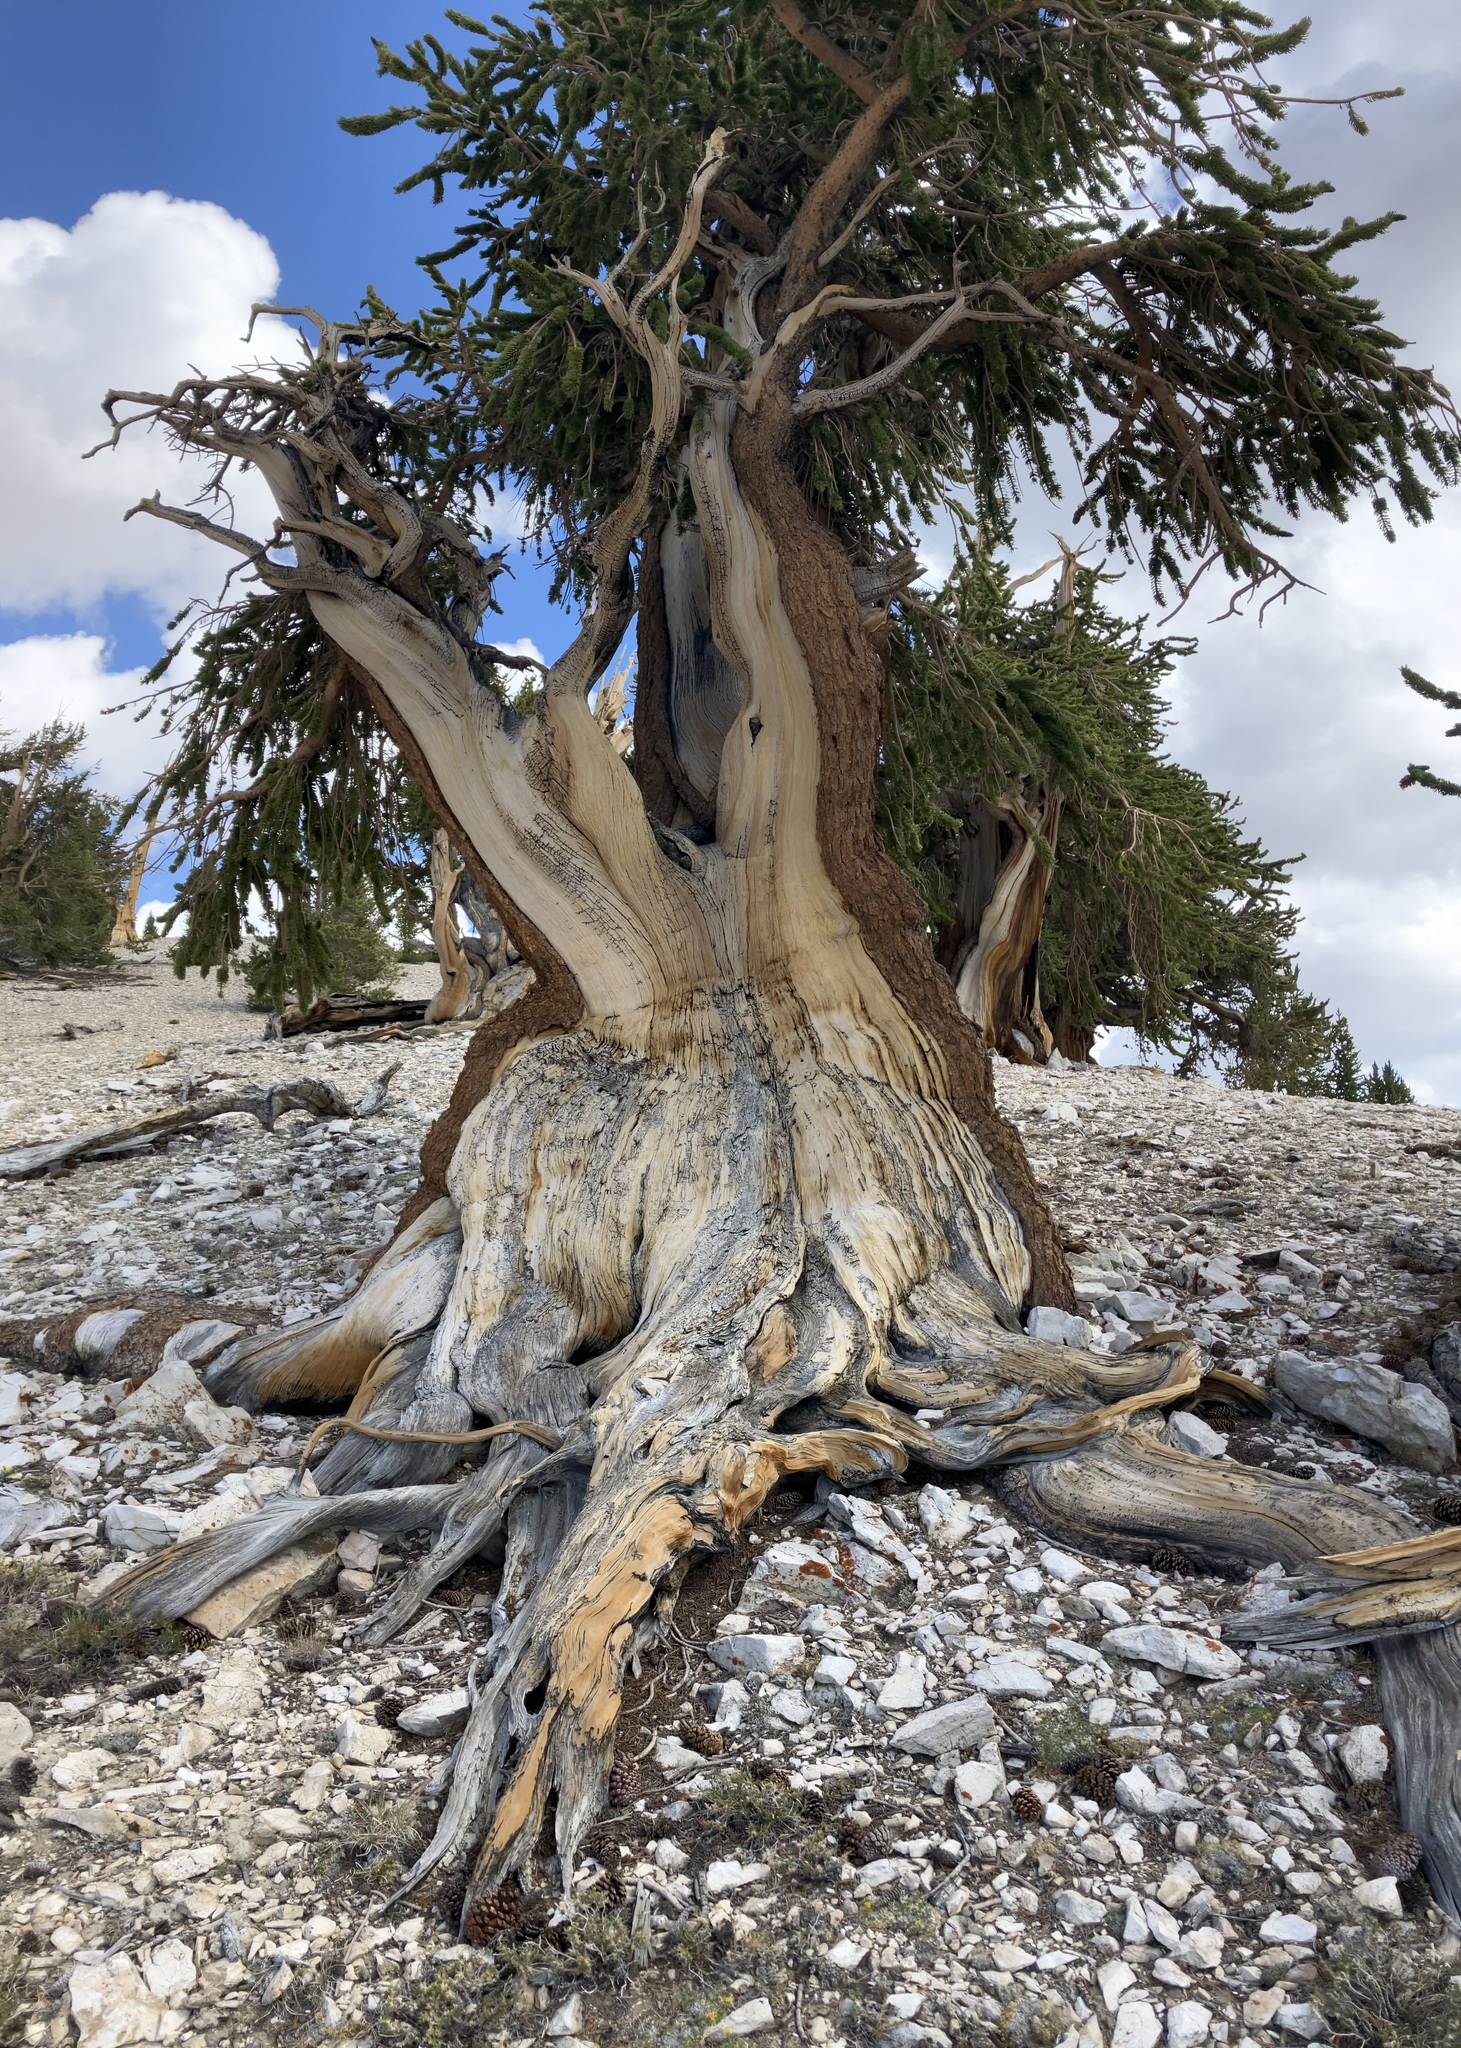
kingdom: Plantae
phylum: Tracheophyta
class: Pinopsida
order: Pinales
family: Pinaceae
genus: Pinus
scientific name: Pinus longaeva
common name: Intermountain bristlecone pine
